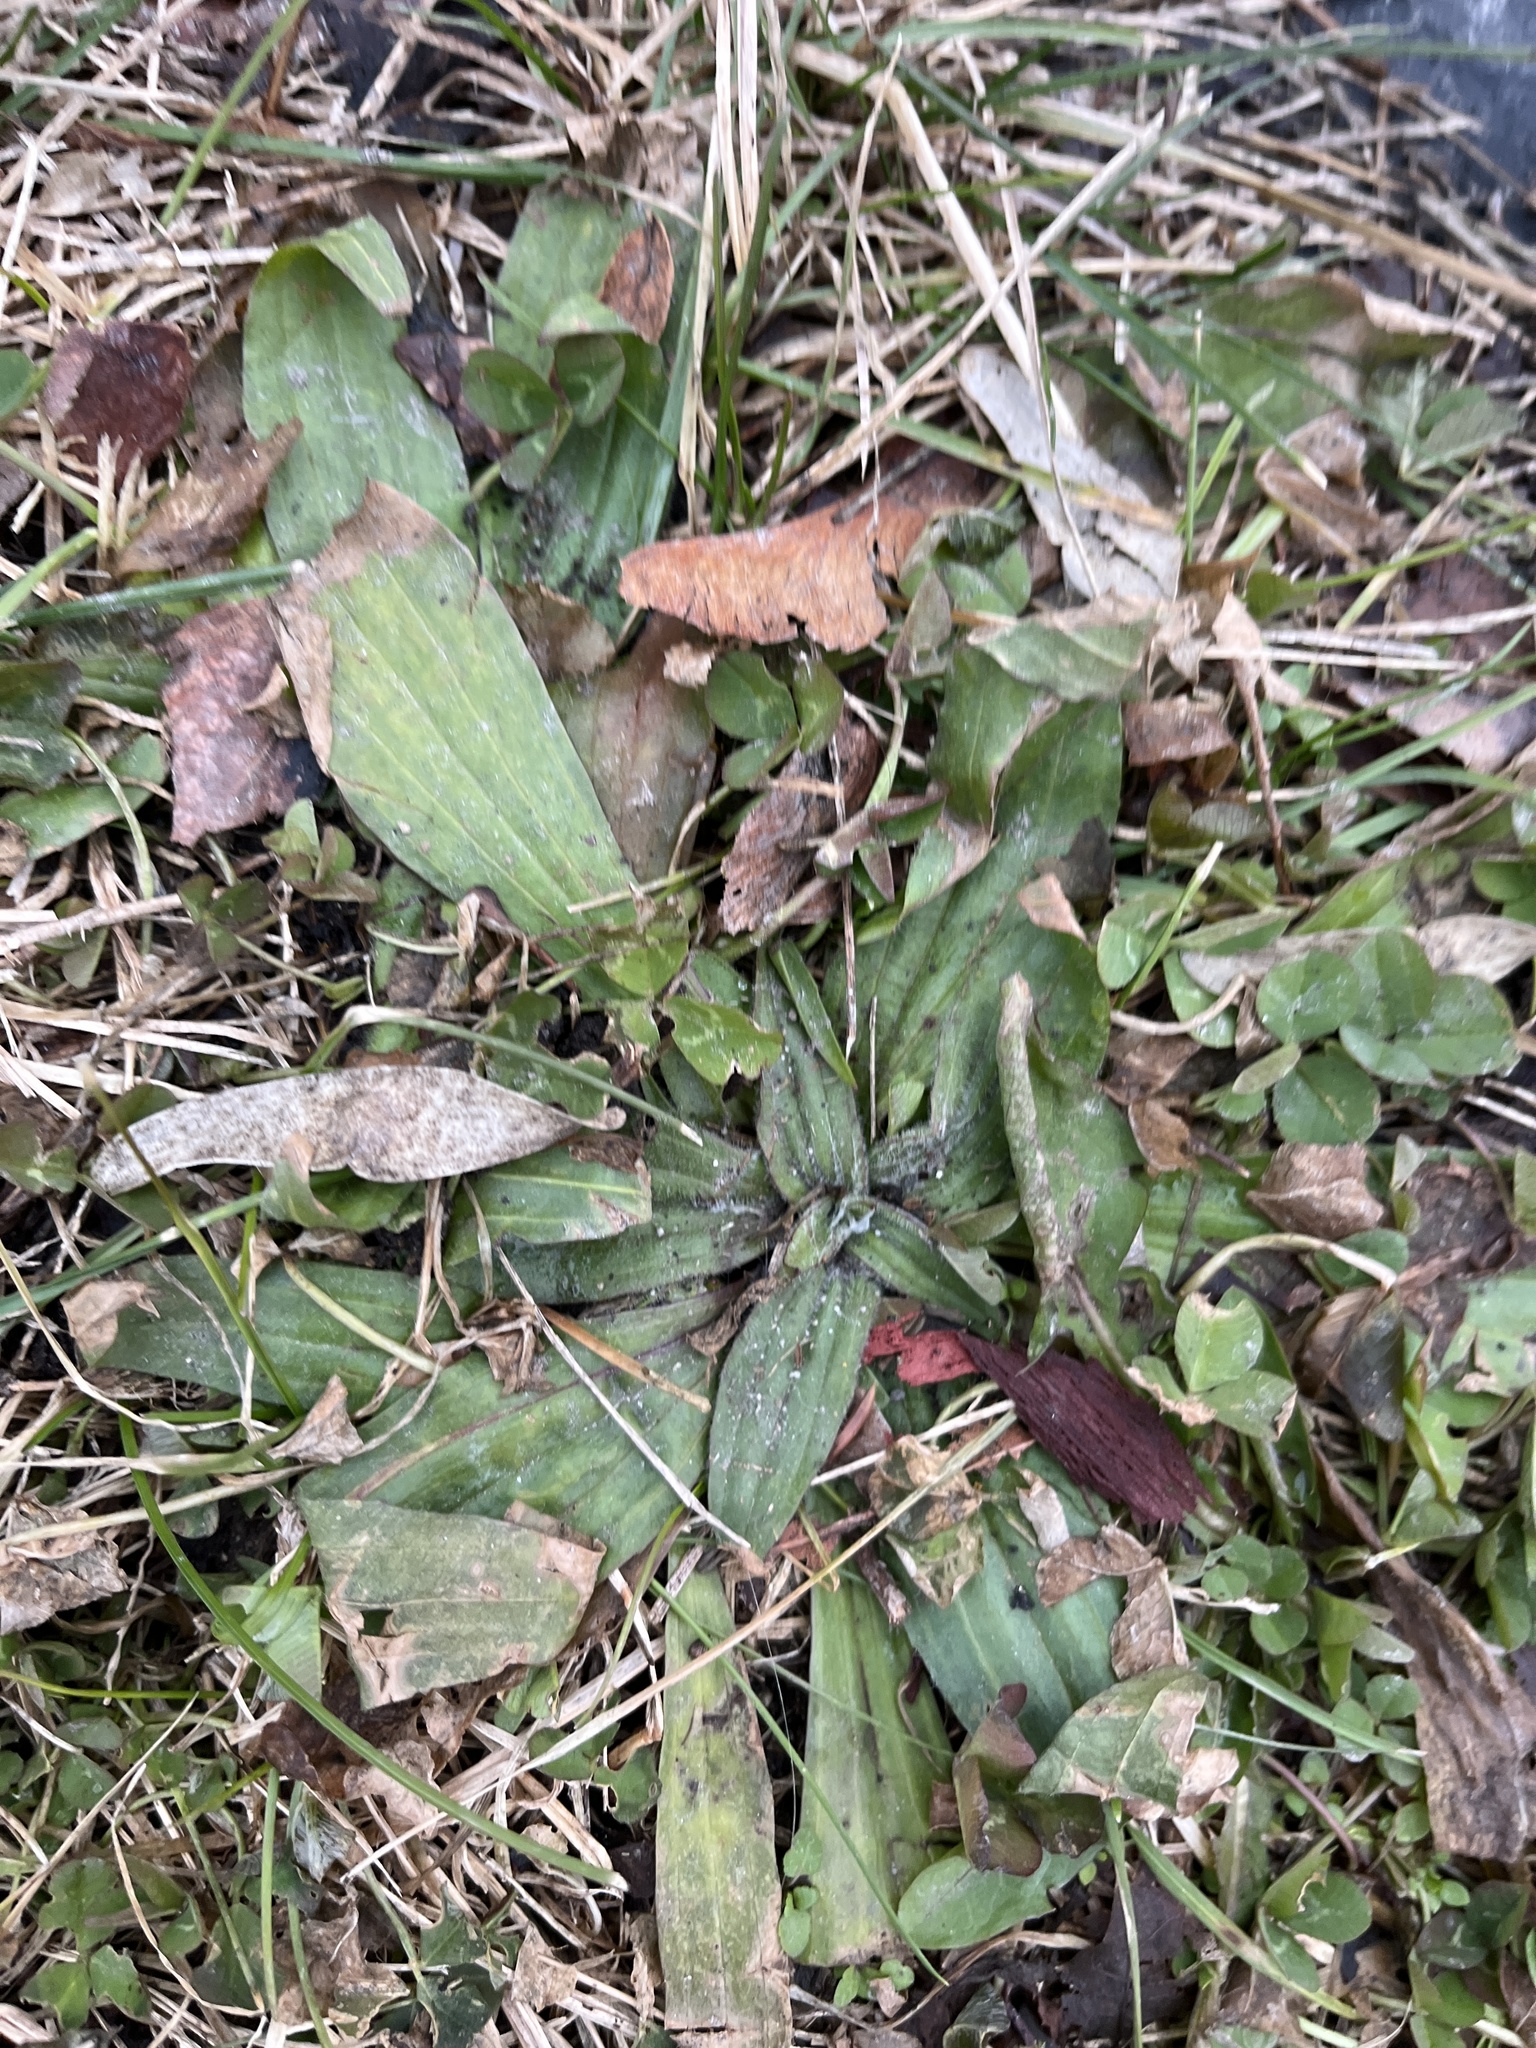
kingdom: Plantae
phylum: Tracheophyta
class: Magnoliopsida
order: Lamiales
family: Plantaginaceae
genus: Plantago
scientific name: Plantago lanceolata
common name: Ribwort plantain
